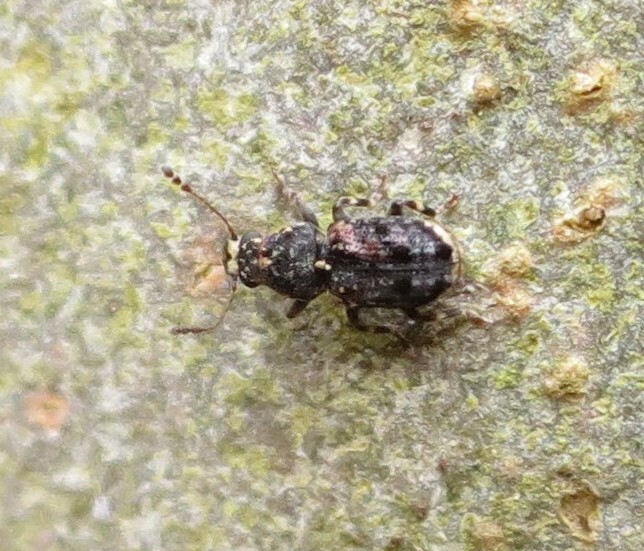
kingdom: Animalia
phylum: Arthropoda
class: Insecta
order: Coleoptera
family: Anthribidae
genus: Pleosporius
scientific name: Pleosporius bullatus
